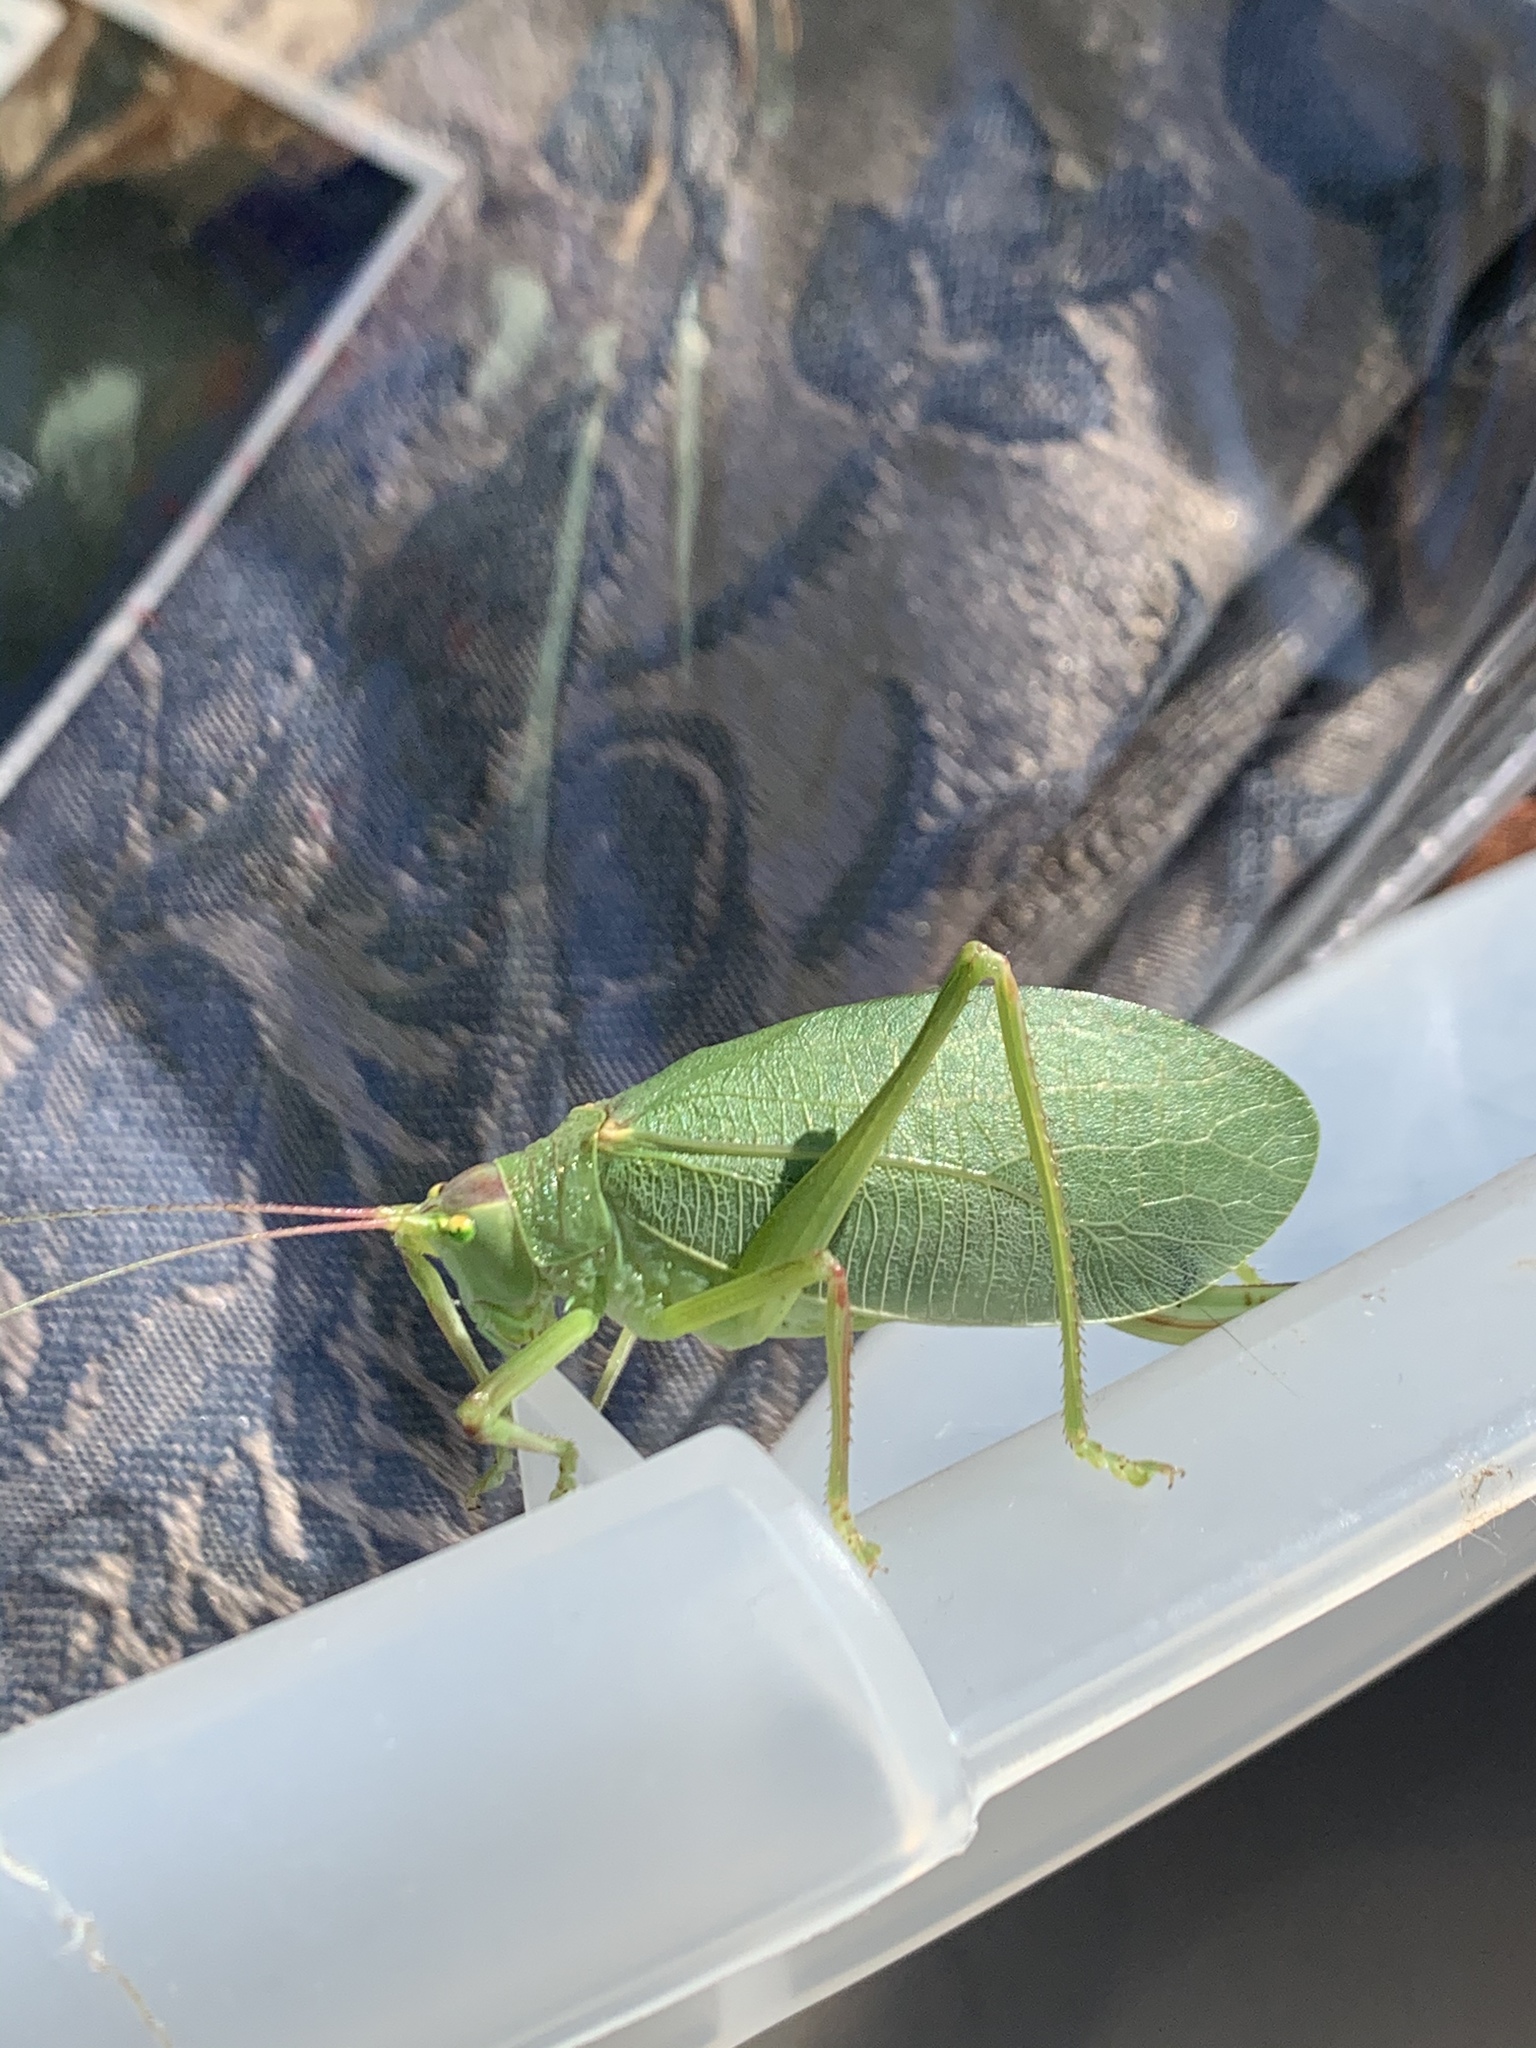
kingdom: Animalia
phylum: Arthropoda
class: Insecta
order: Orthoptera
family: Tettigoniidae
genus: Pterophylla
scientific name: Pterophylla camellifolia
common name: Common true katydid
